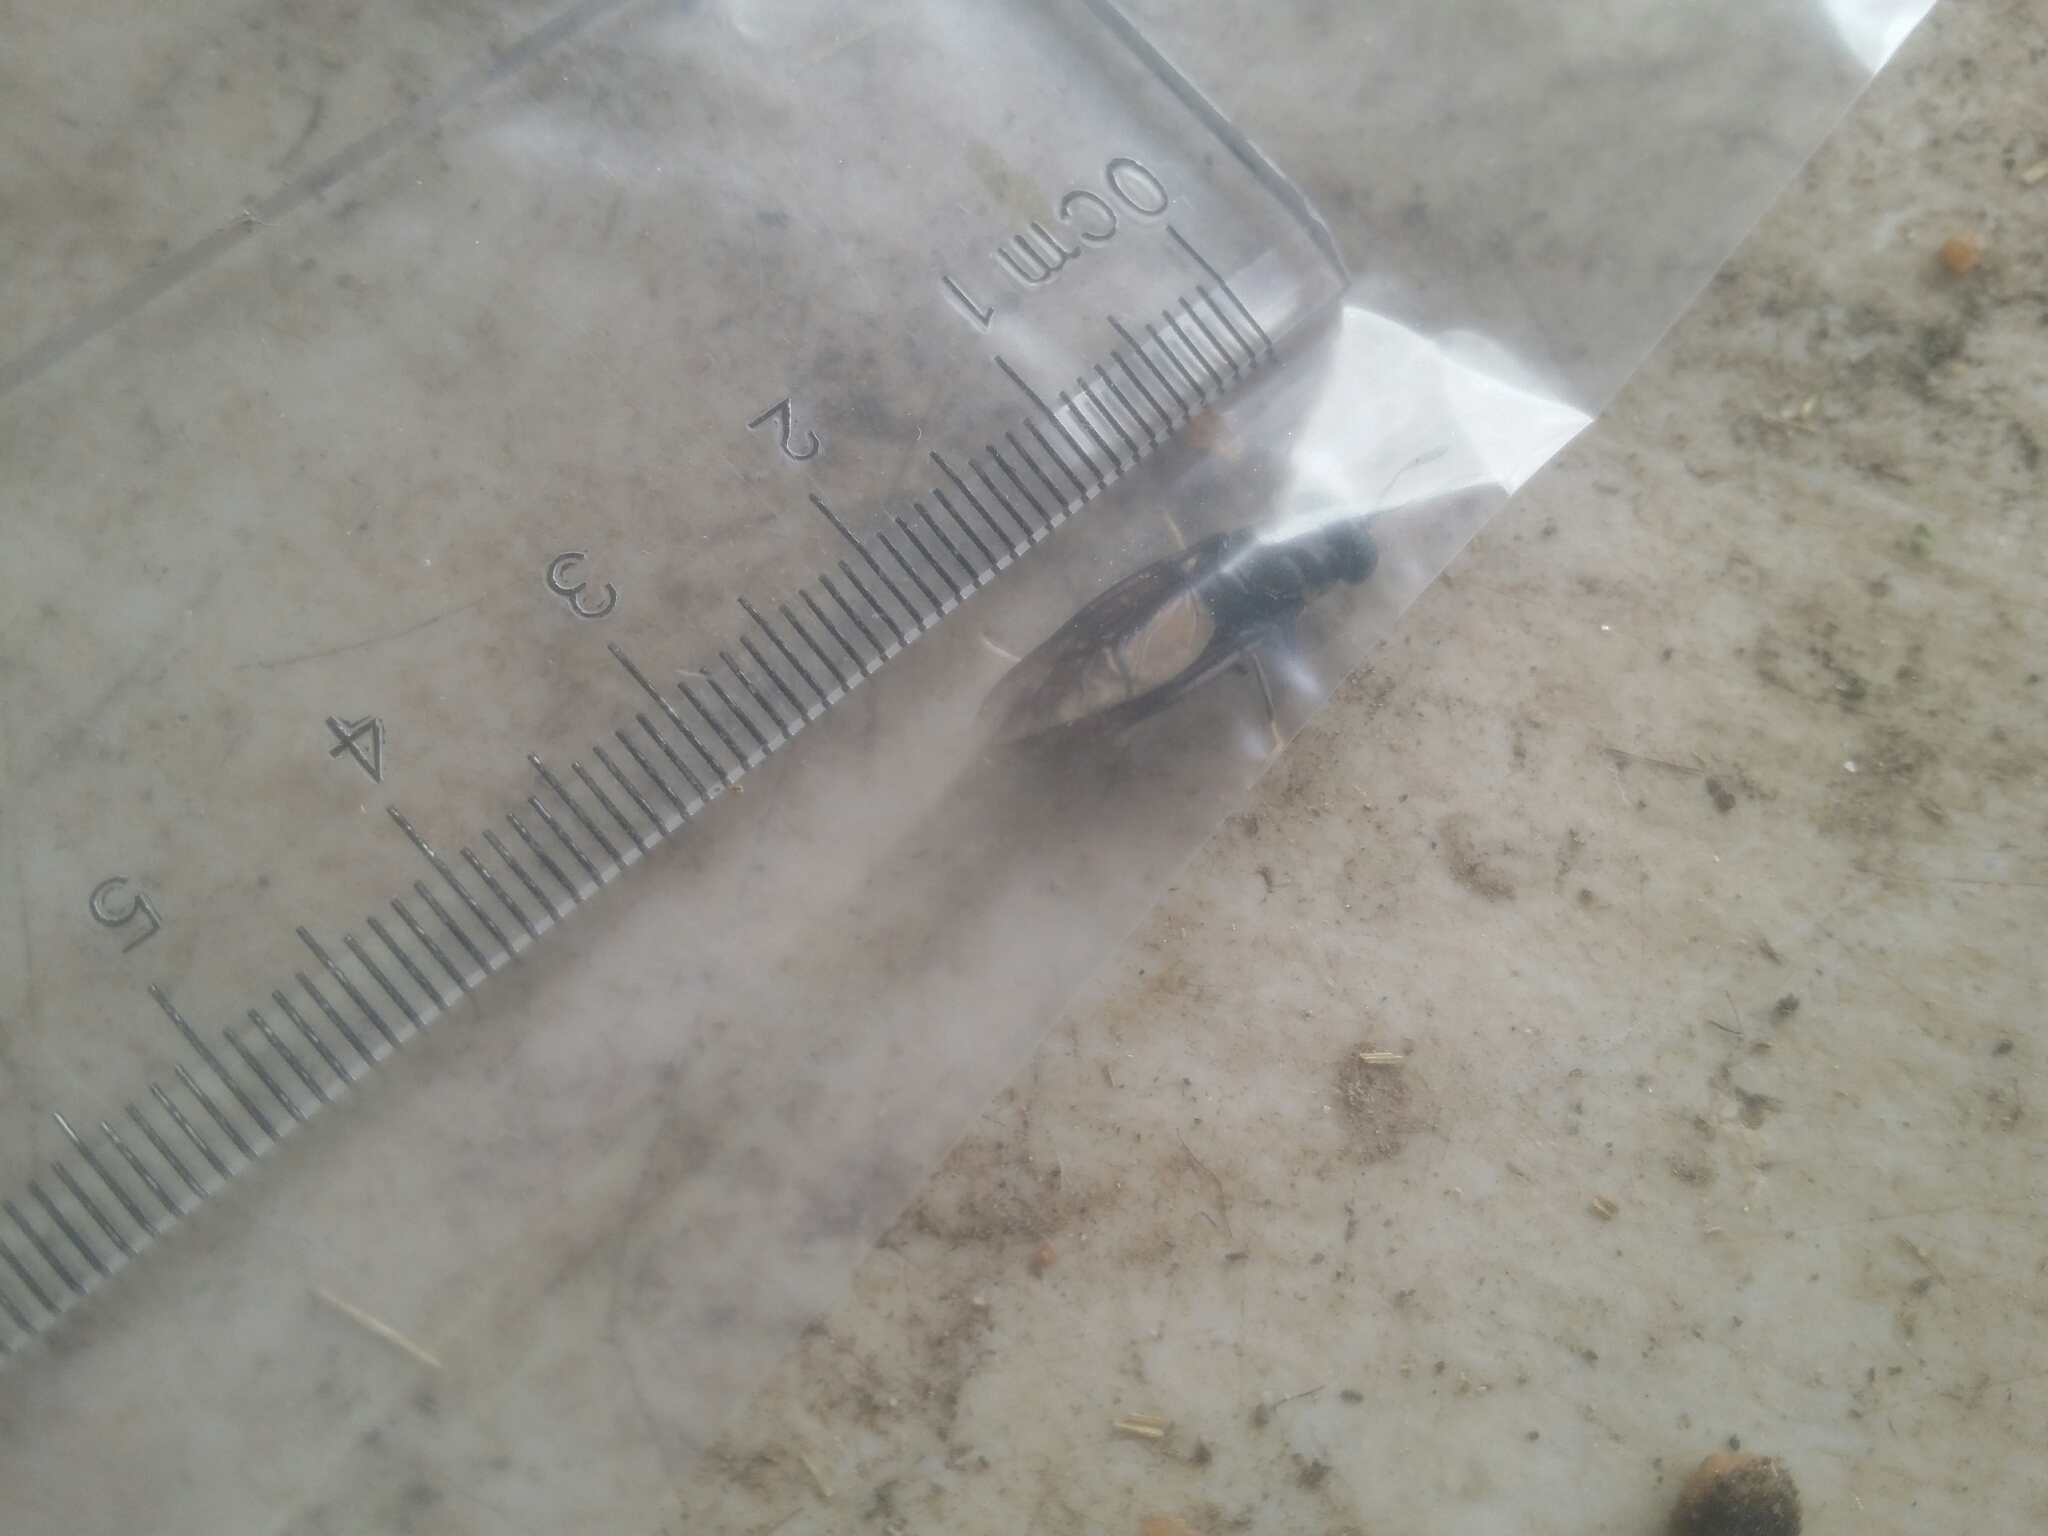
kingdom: Animalia
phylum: Arthropoda
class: Insecta
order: Diptera
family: Stratiomyidae
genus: Hermetia
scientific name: Hermetia illucens
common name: Black soldier fly
